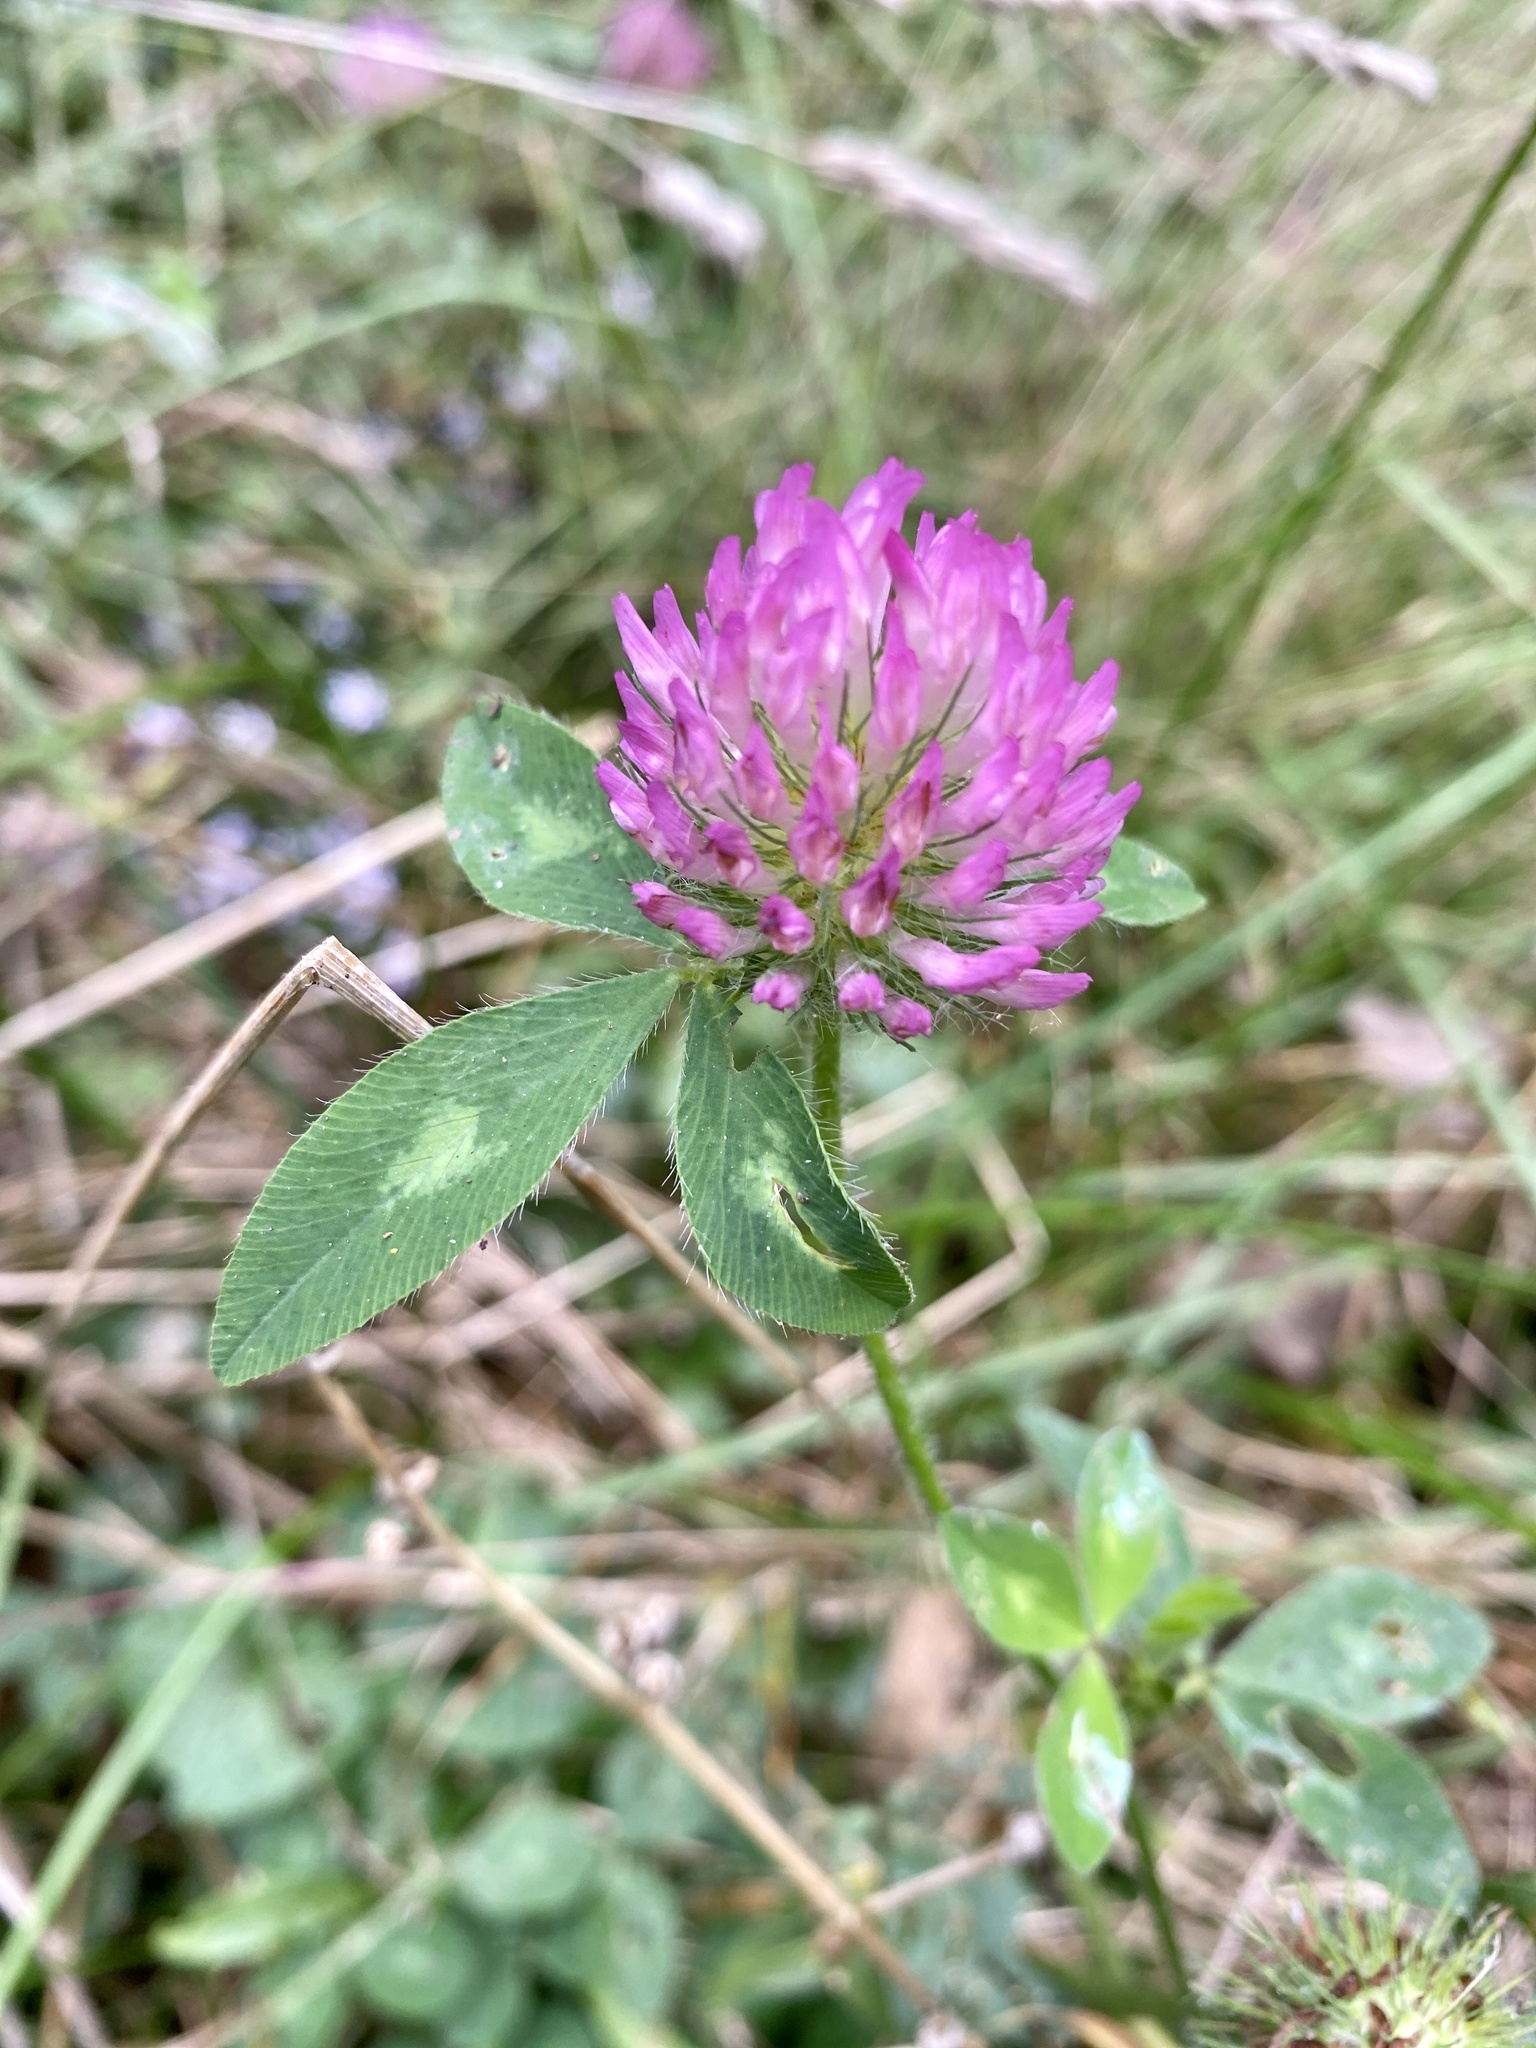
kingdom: Plantae
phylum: Tracheophyta
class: Magnoliopsida
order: Fabales
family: Fabaceae
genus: Trifolium
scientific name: Trifolium pratense
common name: Red clover
